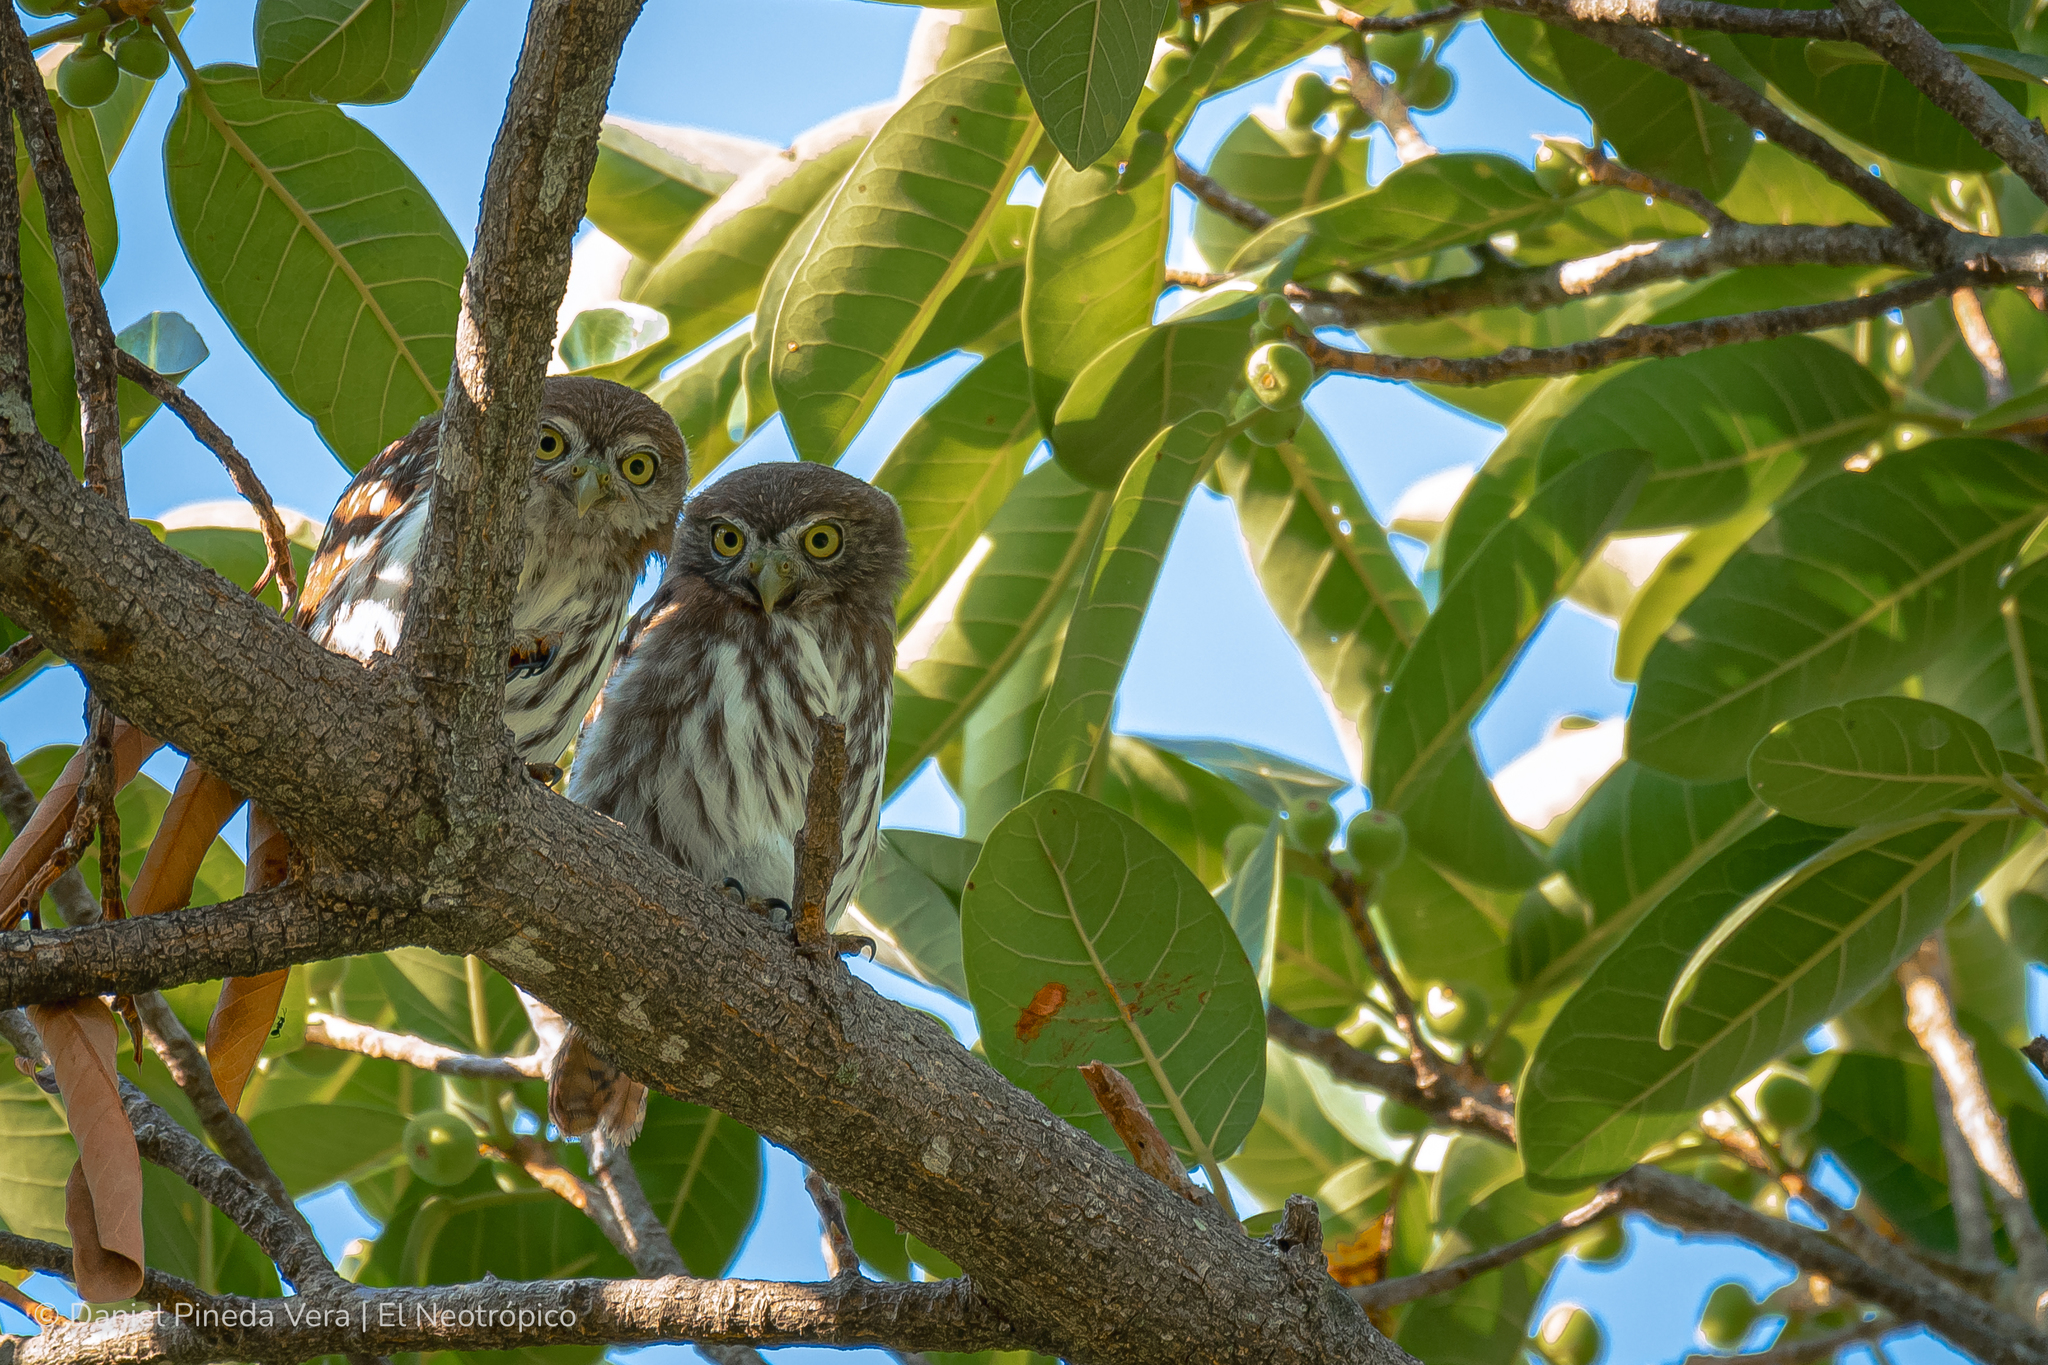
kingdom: Animalia
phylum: Chordata
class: Aves
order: Strigiformes
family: Strigidae
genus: Glaucidium
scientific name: Glaucidium brasilianum
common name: Ferruginous pygmy-owl
